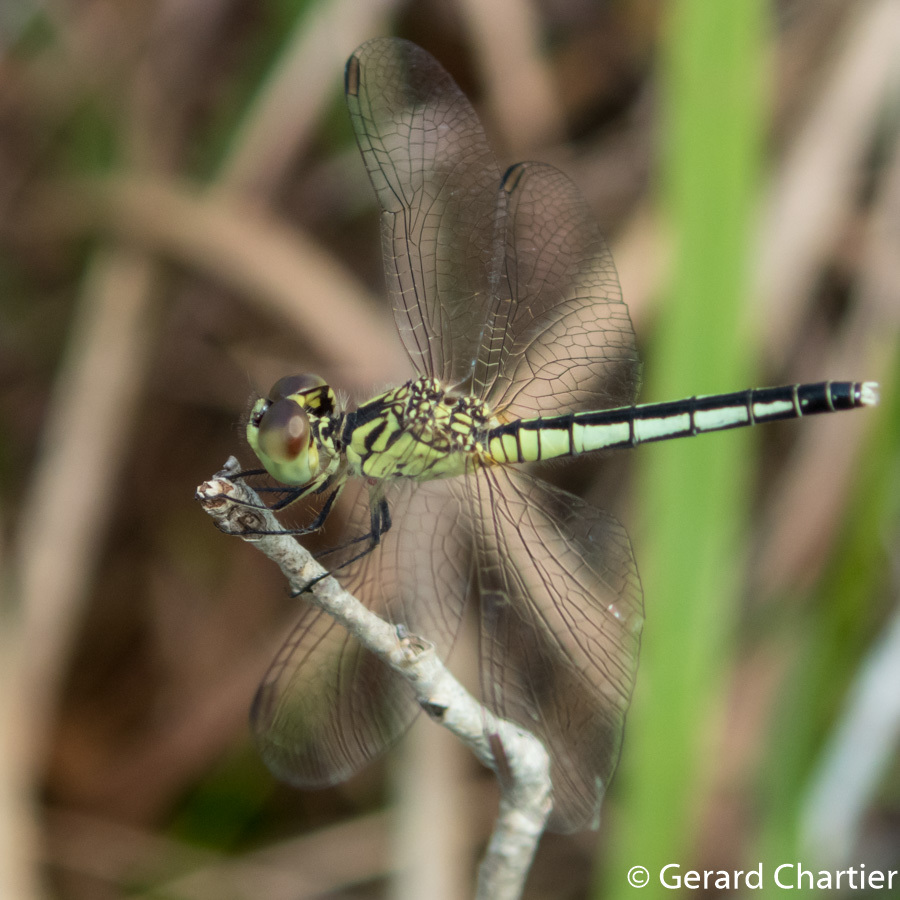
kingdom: Animalia
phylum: Arthropoda
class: Insecta
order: Odonata
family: Libellulidae
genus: Diplacodes
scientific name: Diplacodes nebulosa
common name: Black-tipped percher
